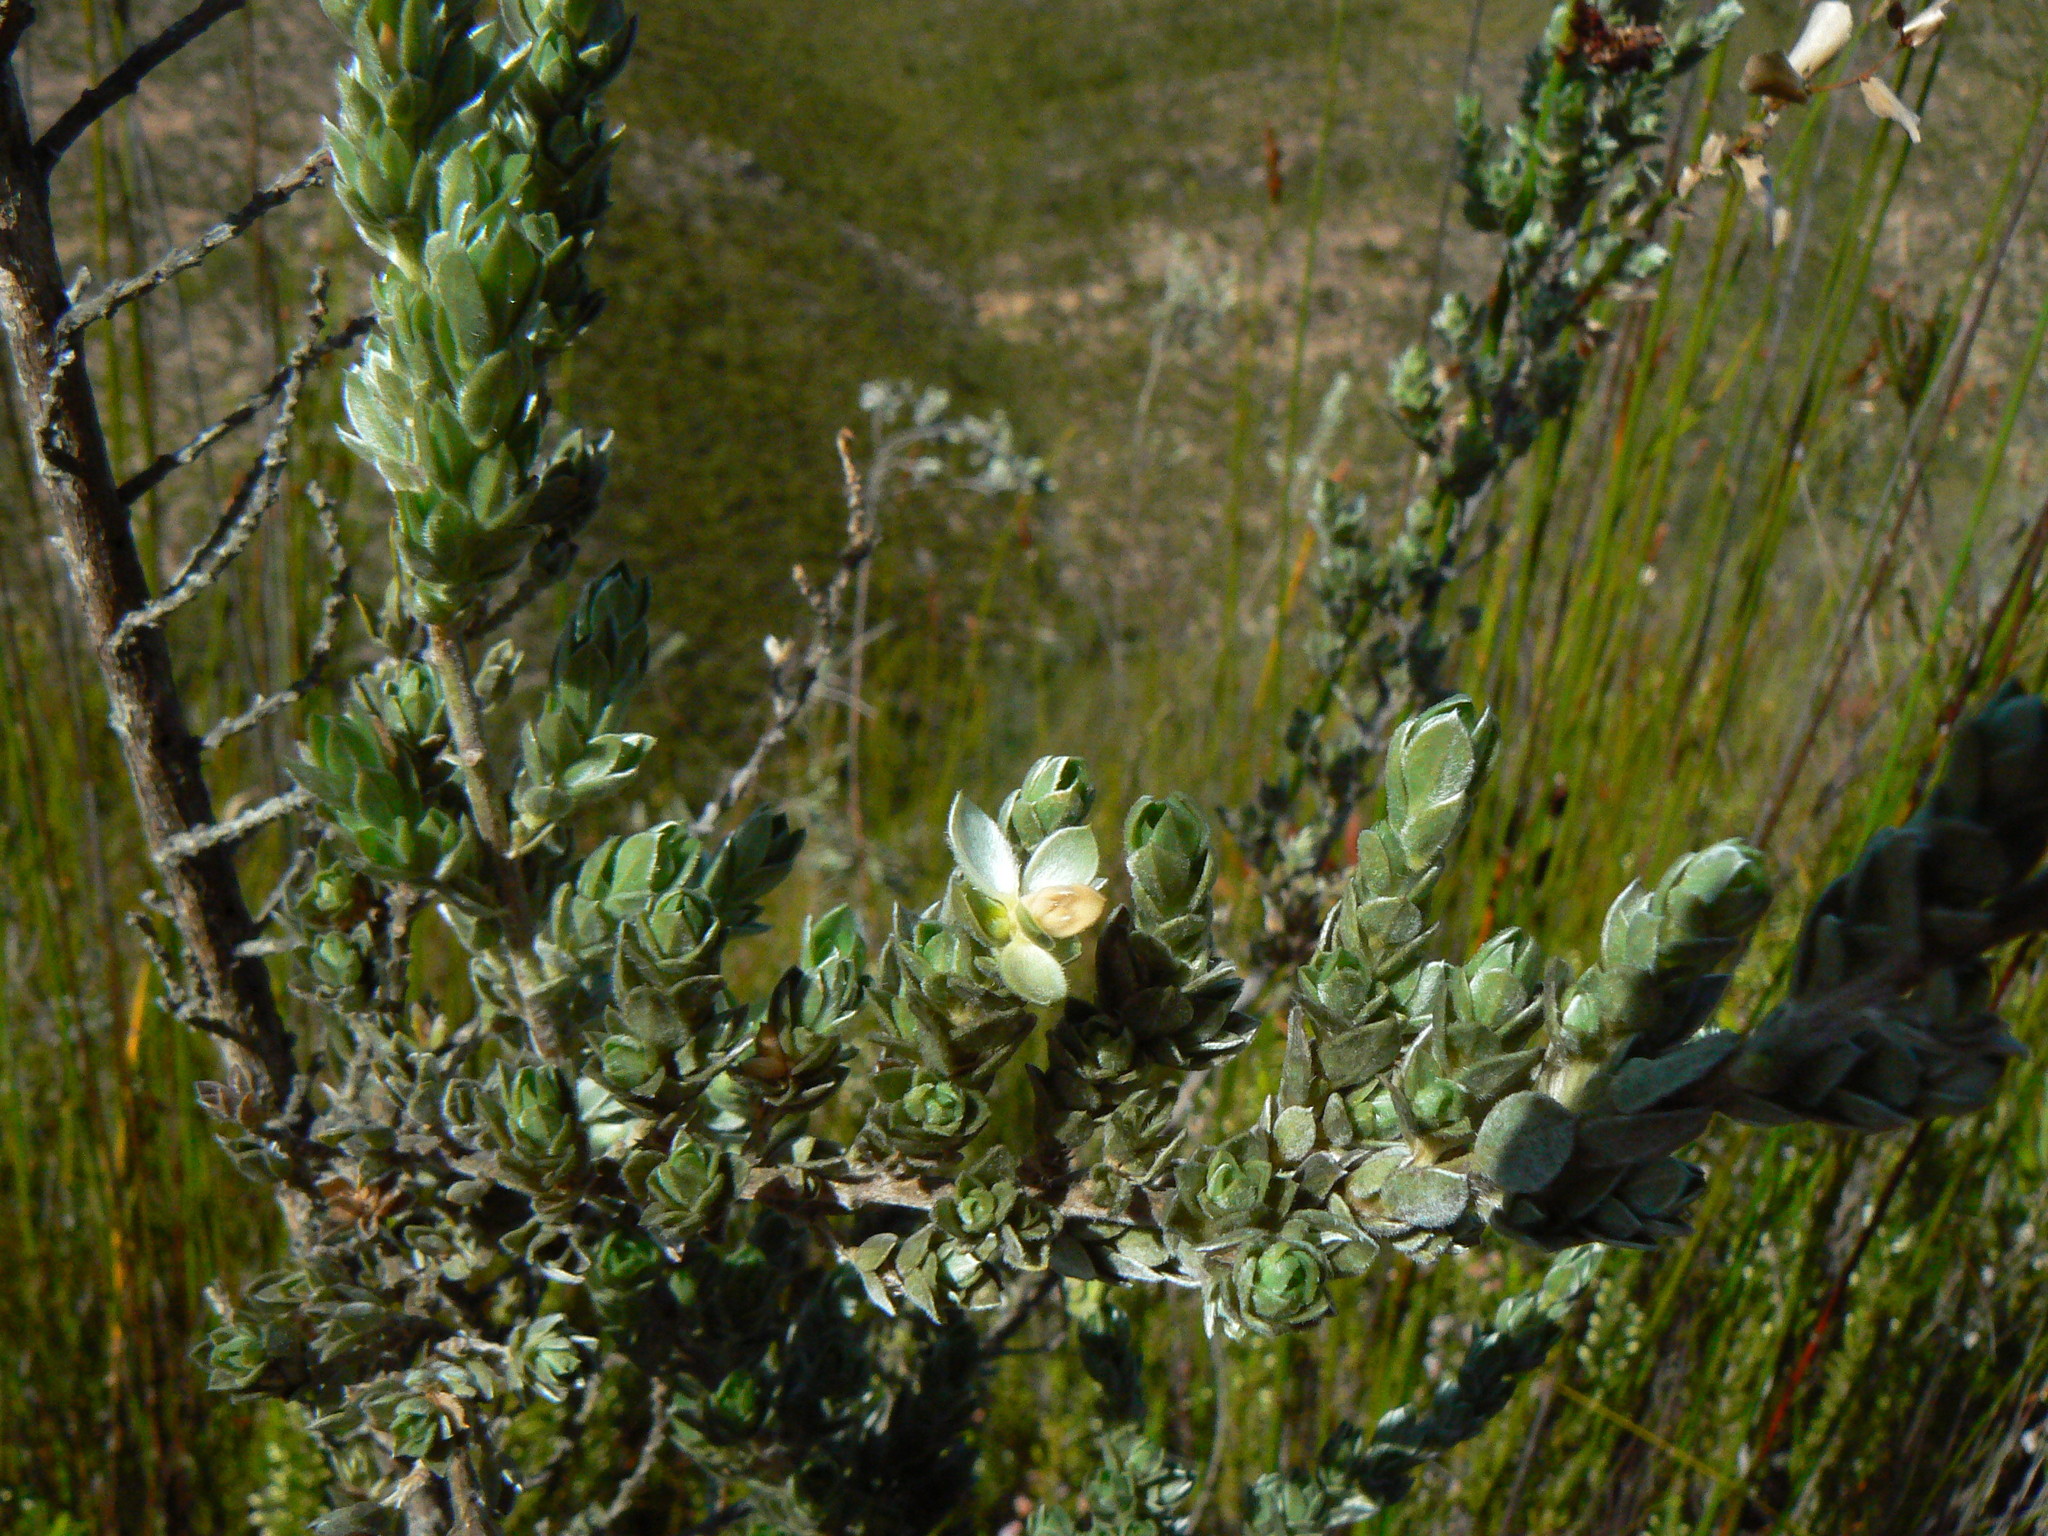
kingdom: Plantae
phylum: Tracheophyta
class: Magnoliopsida
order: Fabales
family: Fabaceae
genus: Amphithalea
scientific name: Amphithalea fourcadei
